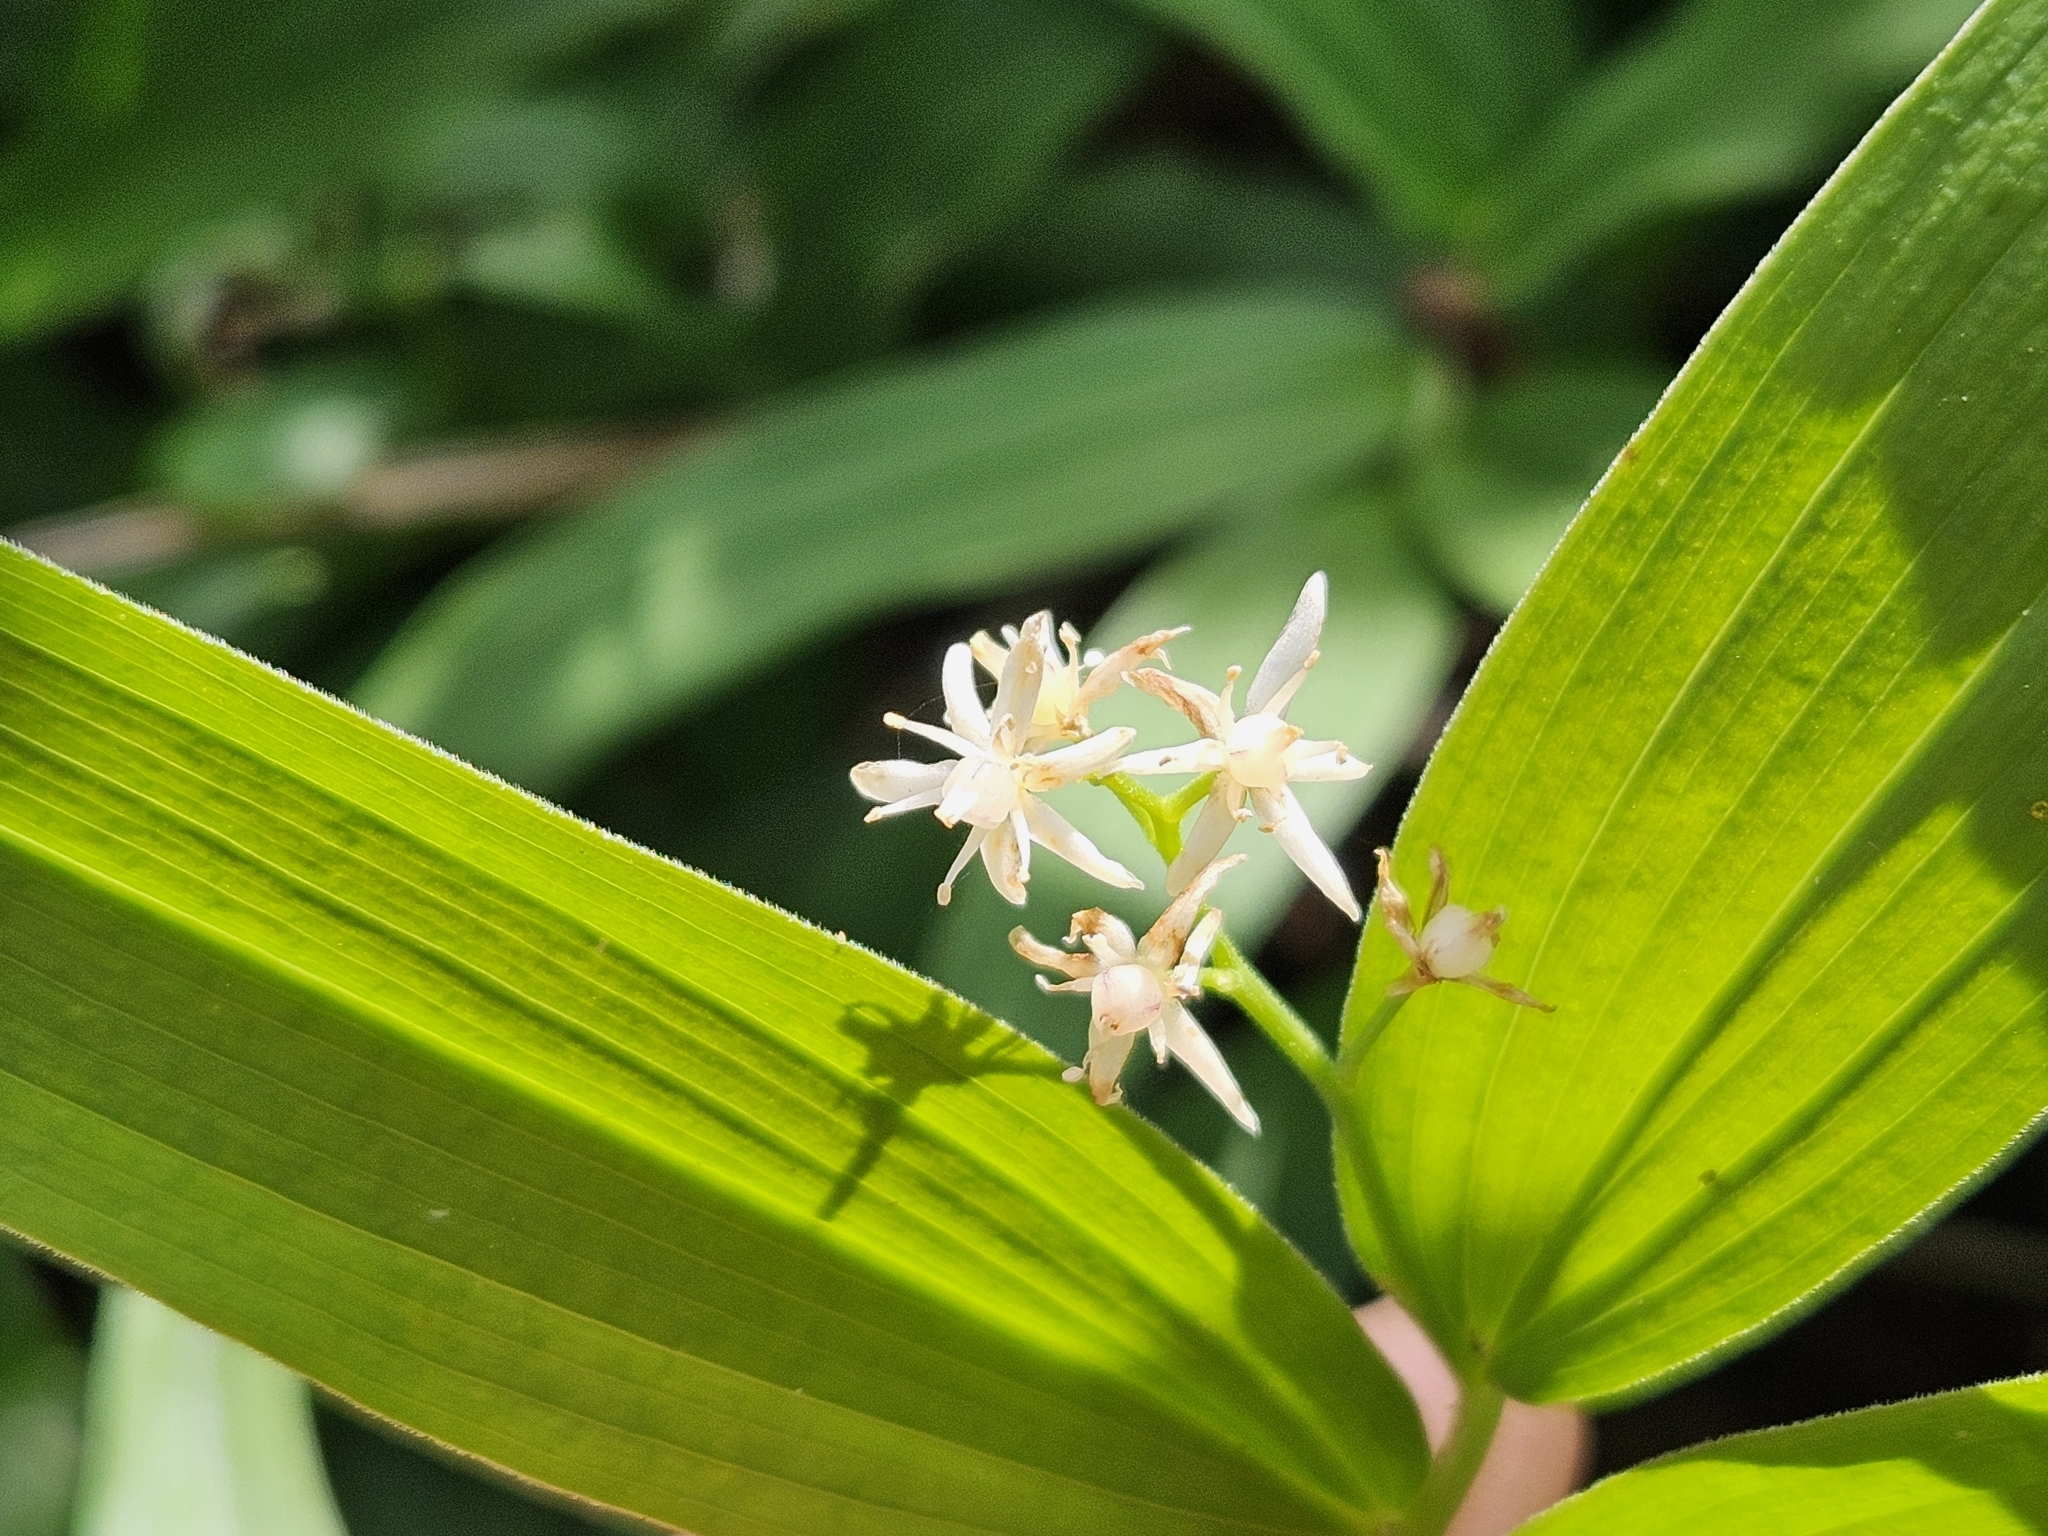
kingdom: Plantae
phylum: Tracheophyta
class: Liliopsida
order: Asparagales
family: Asparagaceae
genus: Maianthemum
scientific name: Maianthemum stellatum
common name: Little false solomon's seal
